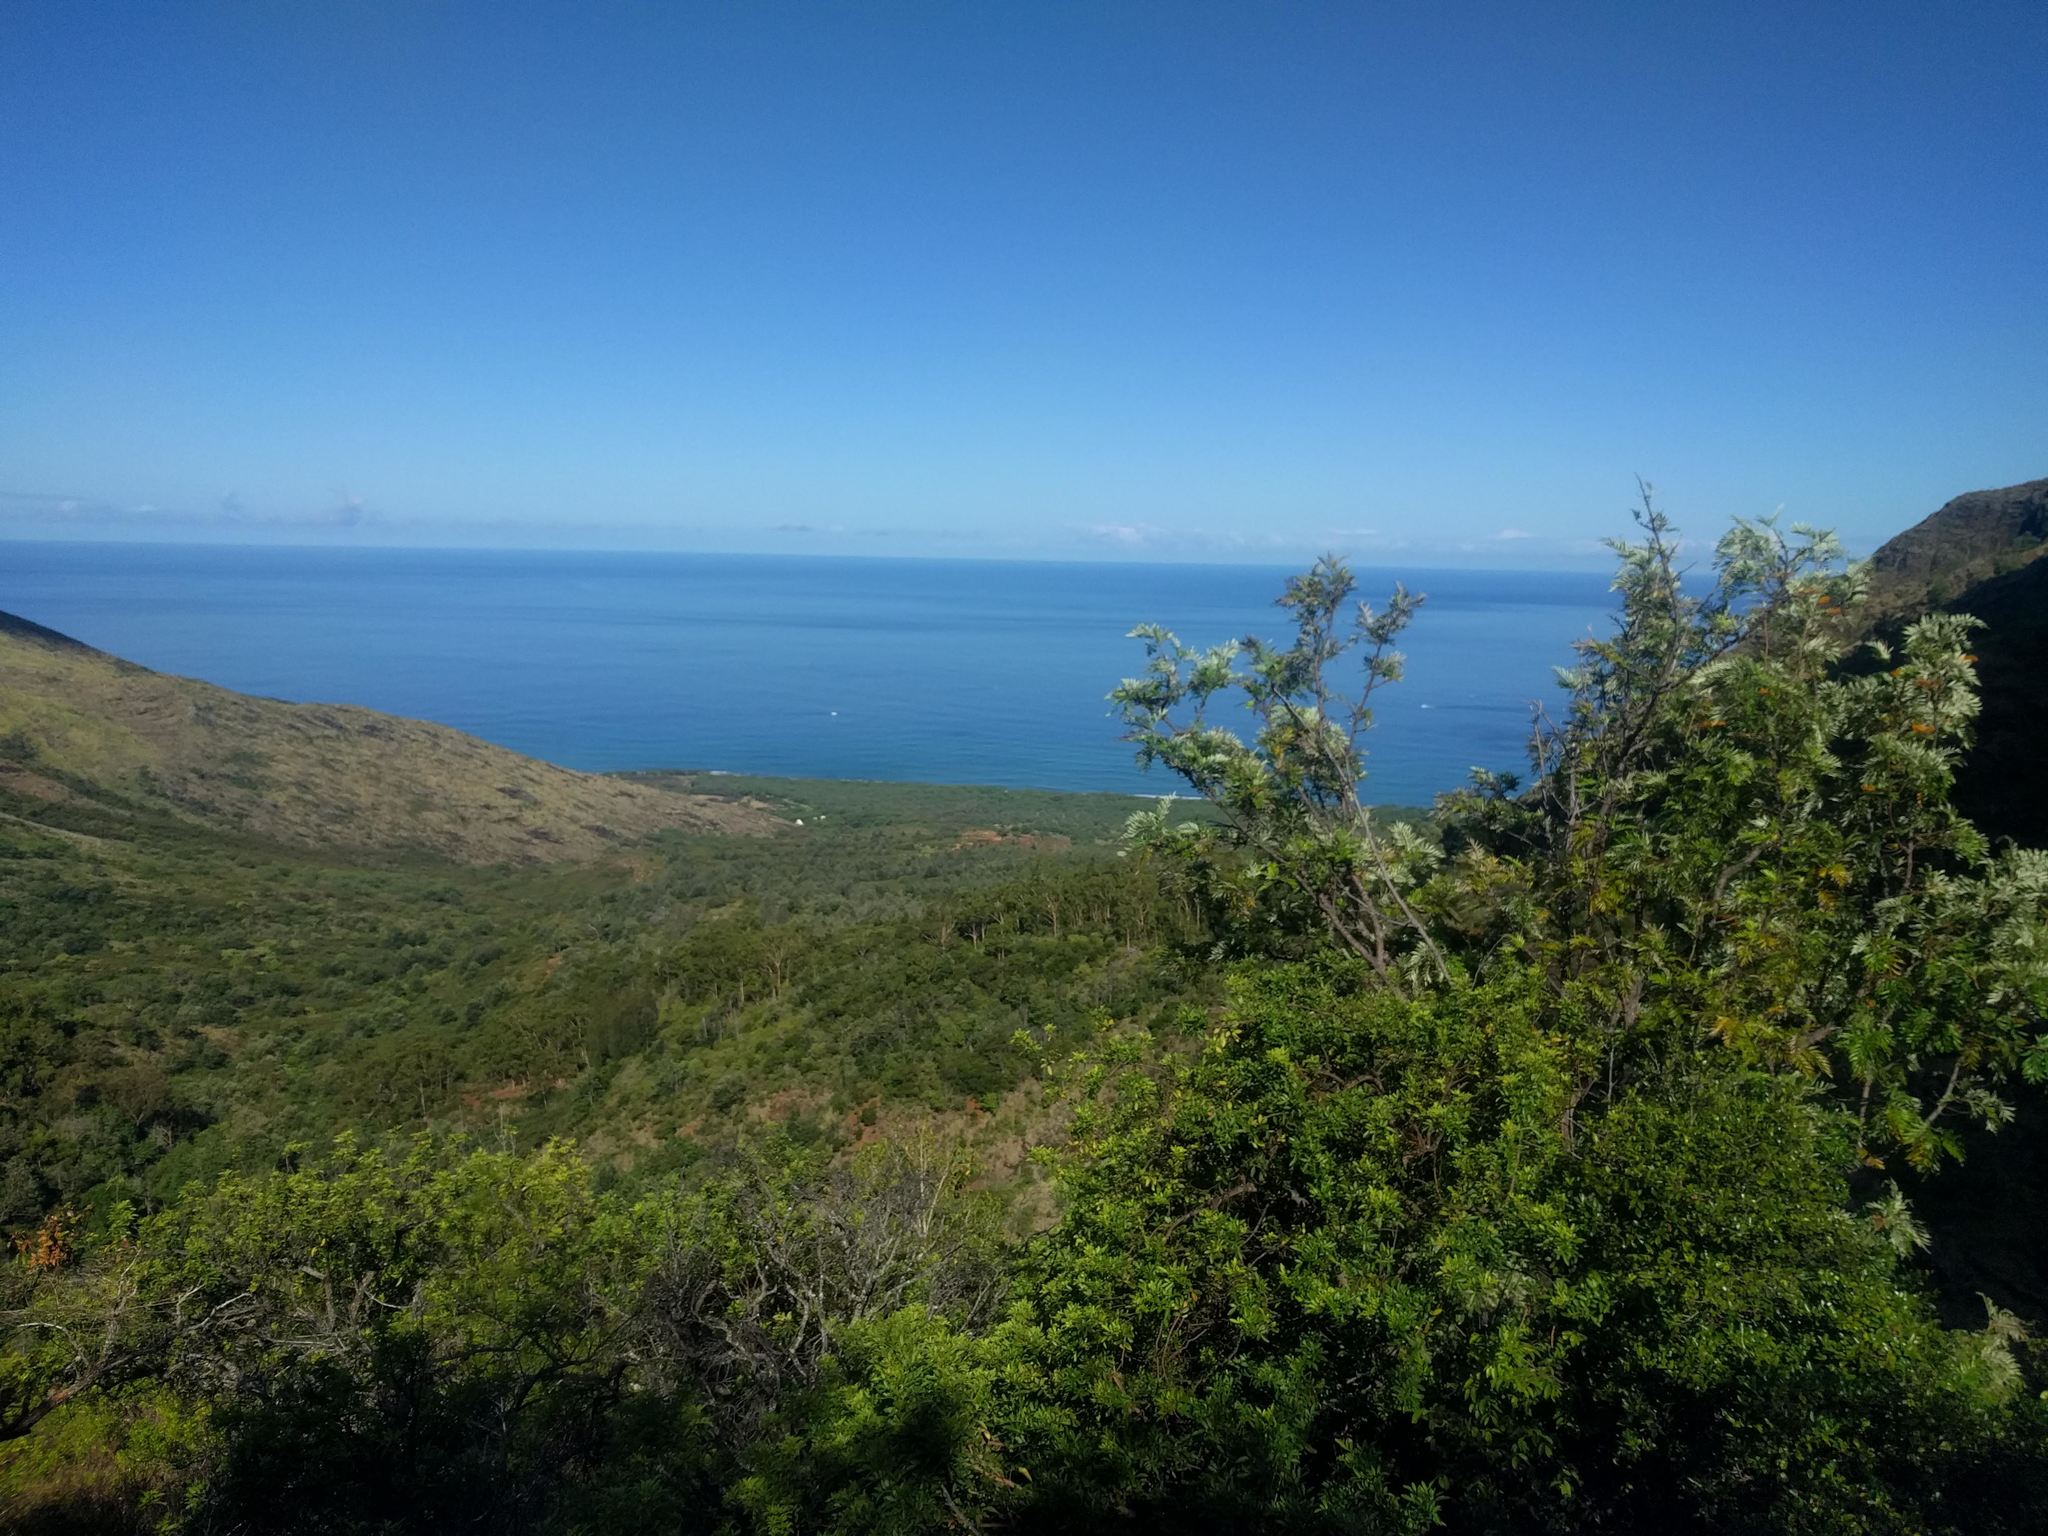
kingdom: Plantae
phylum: Tracheophyta
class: Magnoliopsida
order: Proteales
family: Proteaceae
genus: Grevillea
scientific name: Grevillea robusta
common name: Silkoak
